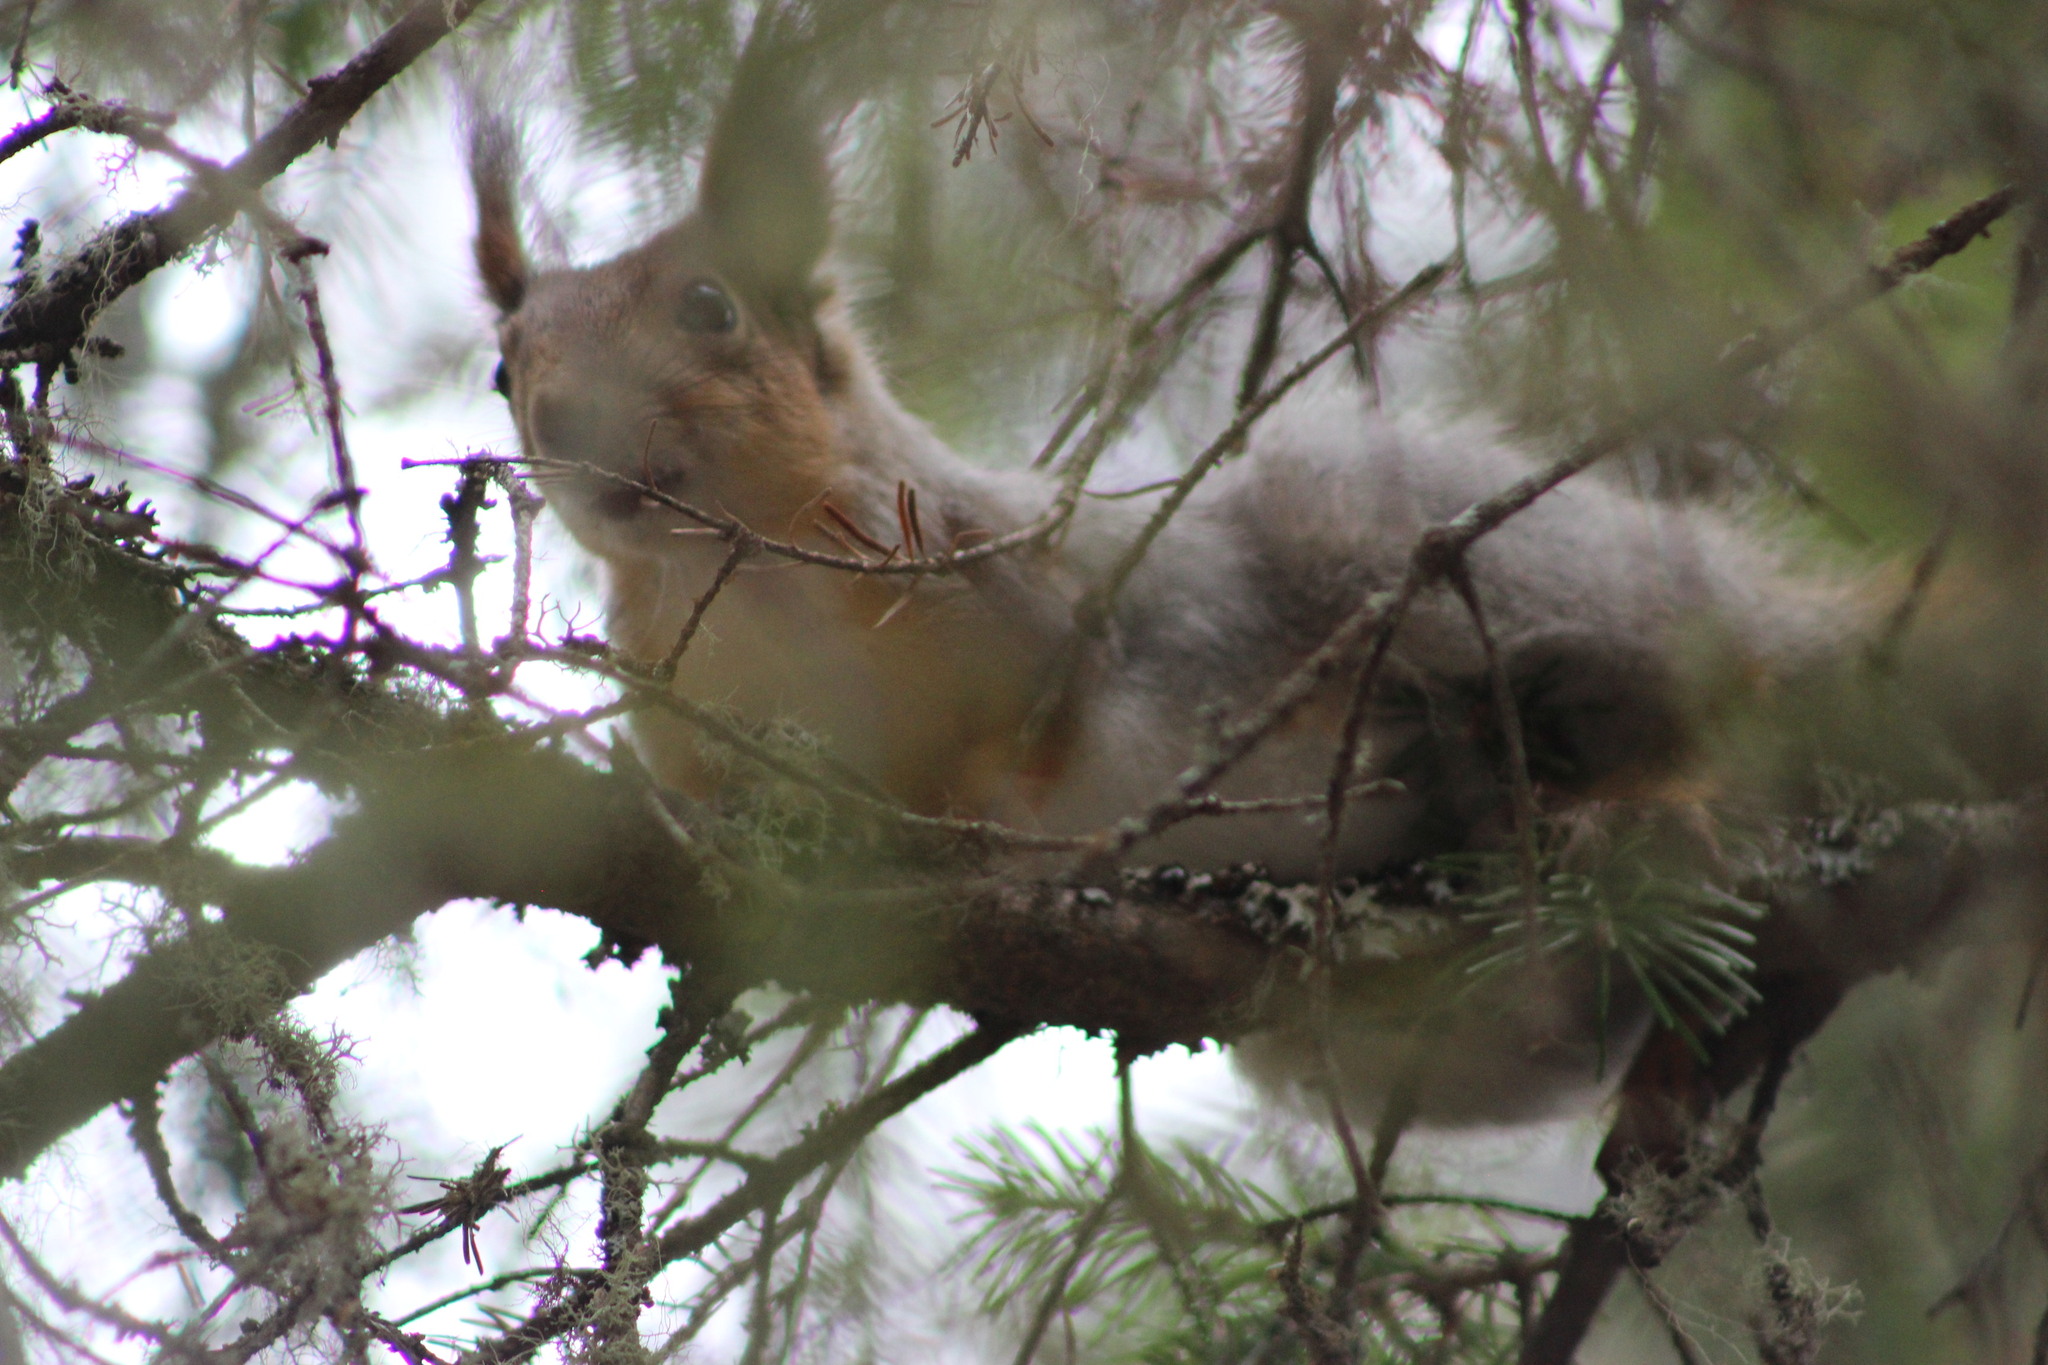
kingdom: Animalia
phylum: Chordata
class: Mammalia
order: Rodentia
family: Sciuridae
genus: Sciurus
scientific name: Sciurus vulgaris
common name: Eurasian red squirrel
